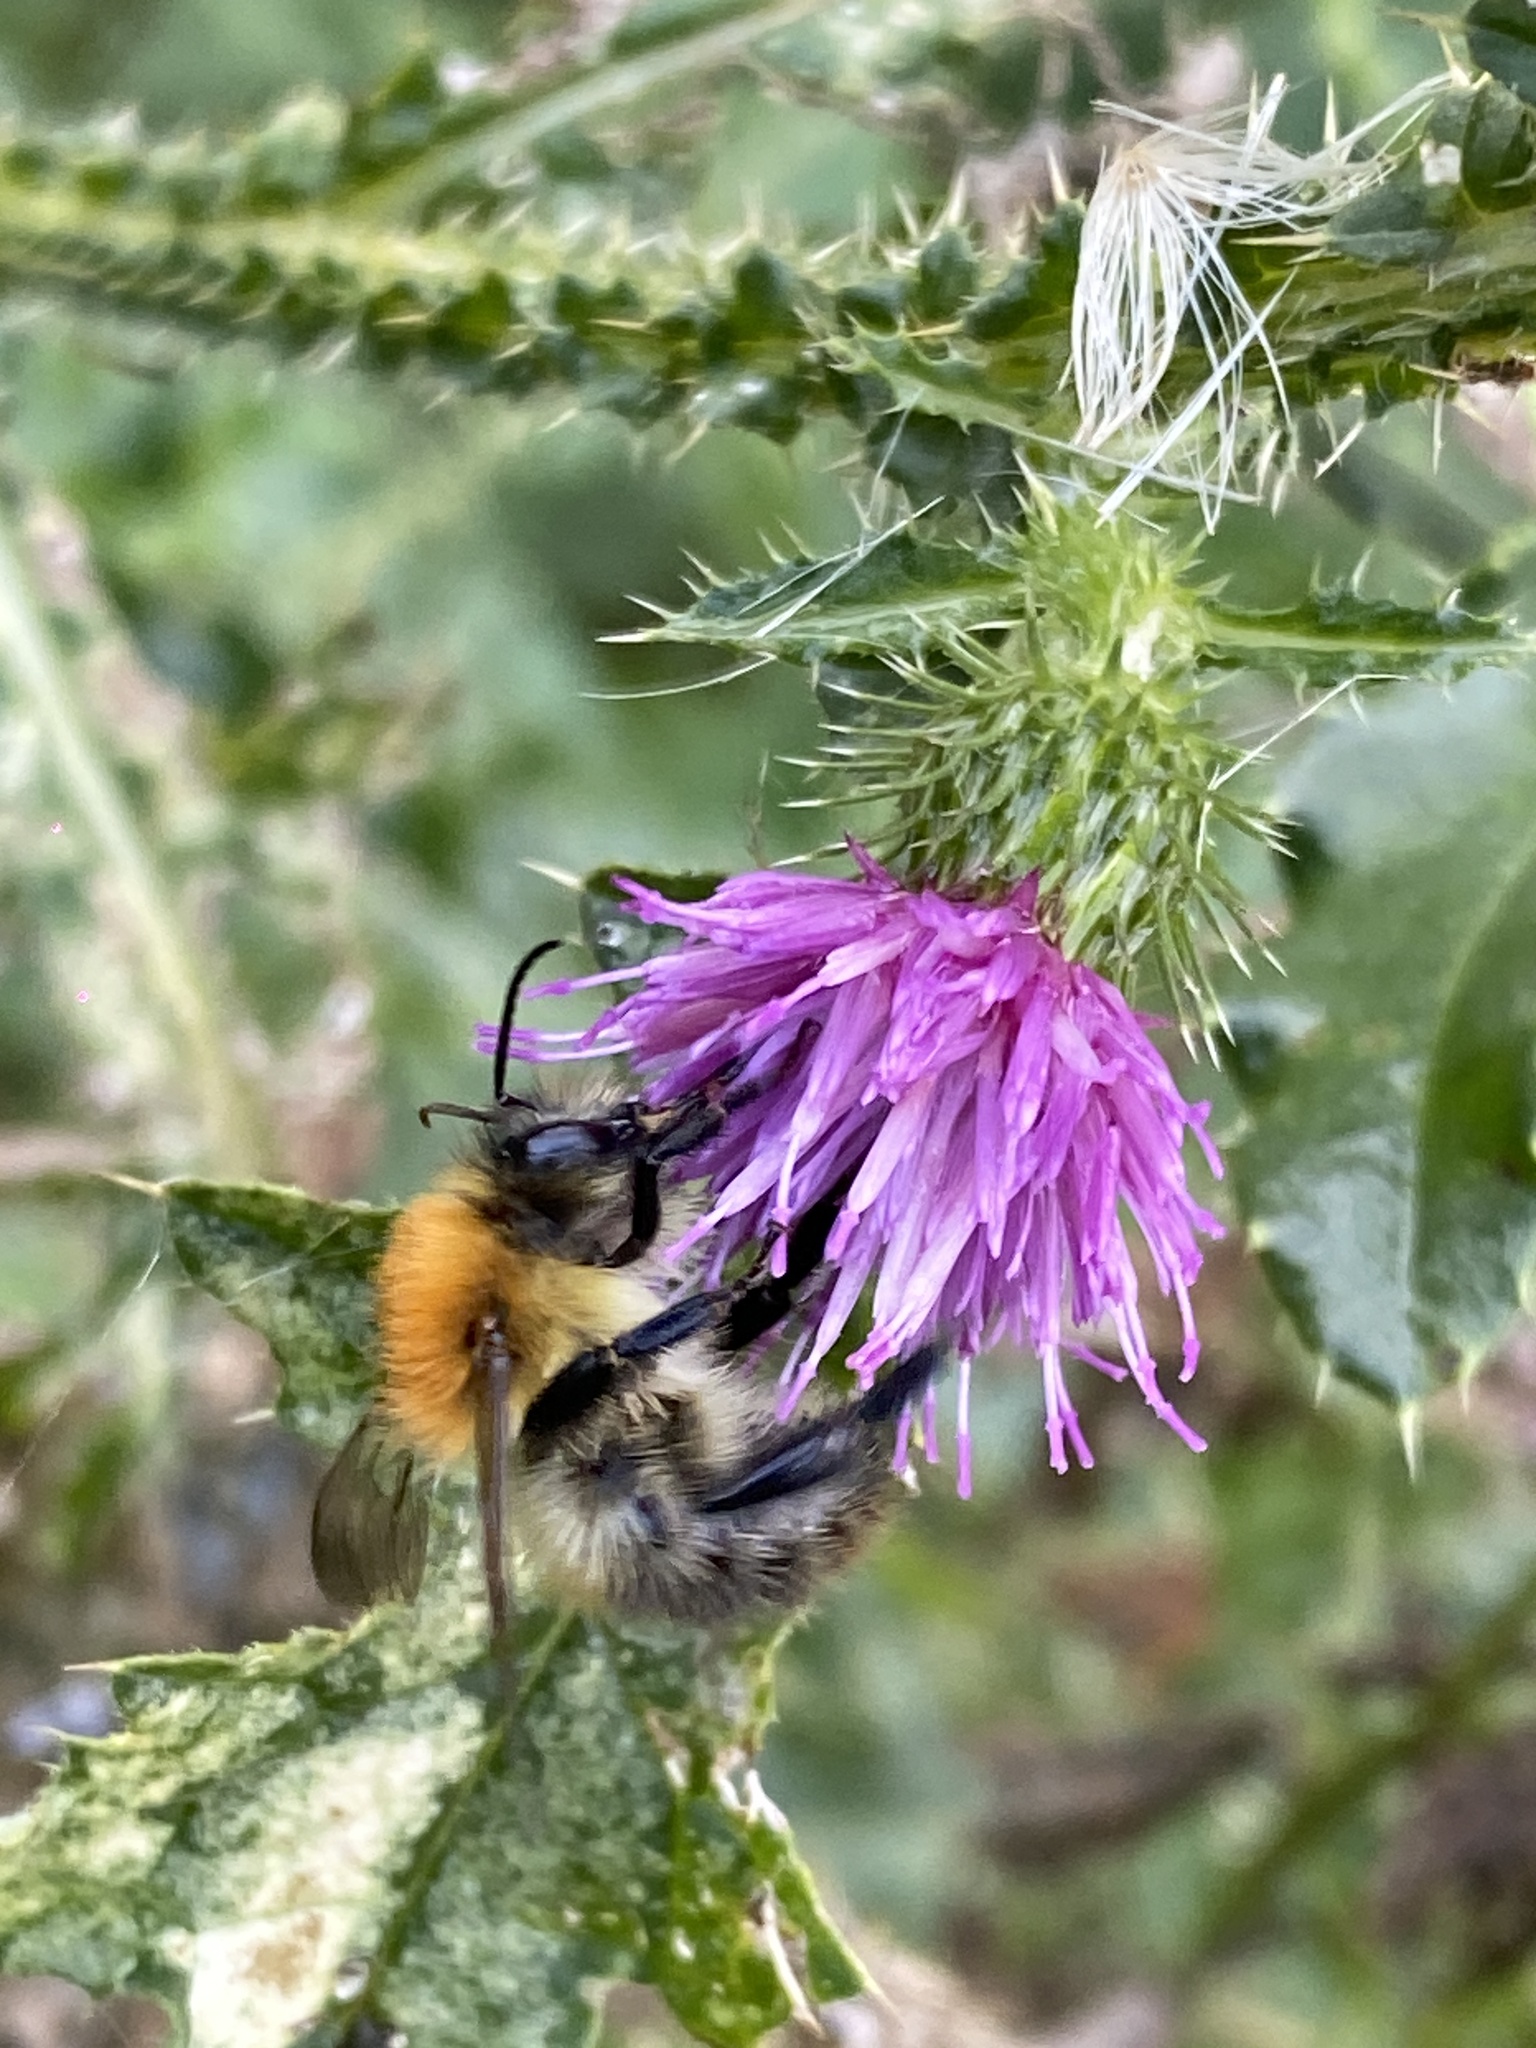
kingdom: Animalia
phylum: Arthropoda
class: Insecta
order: Hymenoptera
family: Apidae
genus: Bombus
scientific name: Bombus pascuorum
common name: Common carder bee
